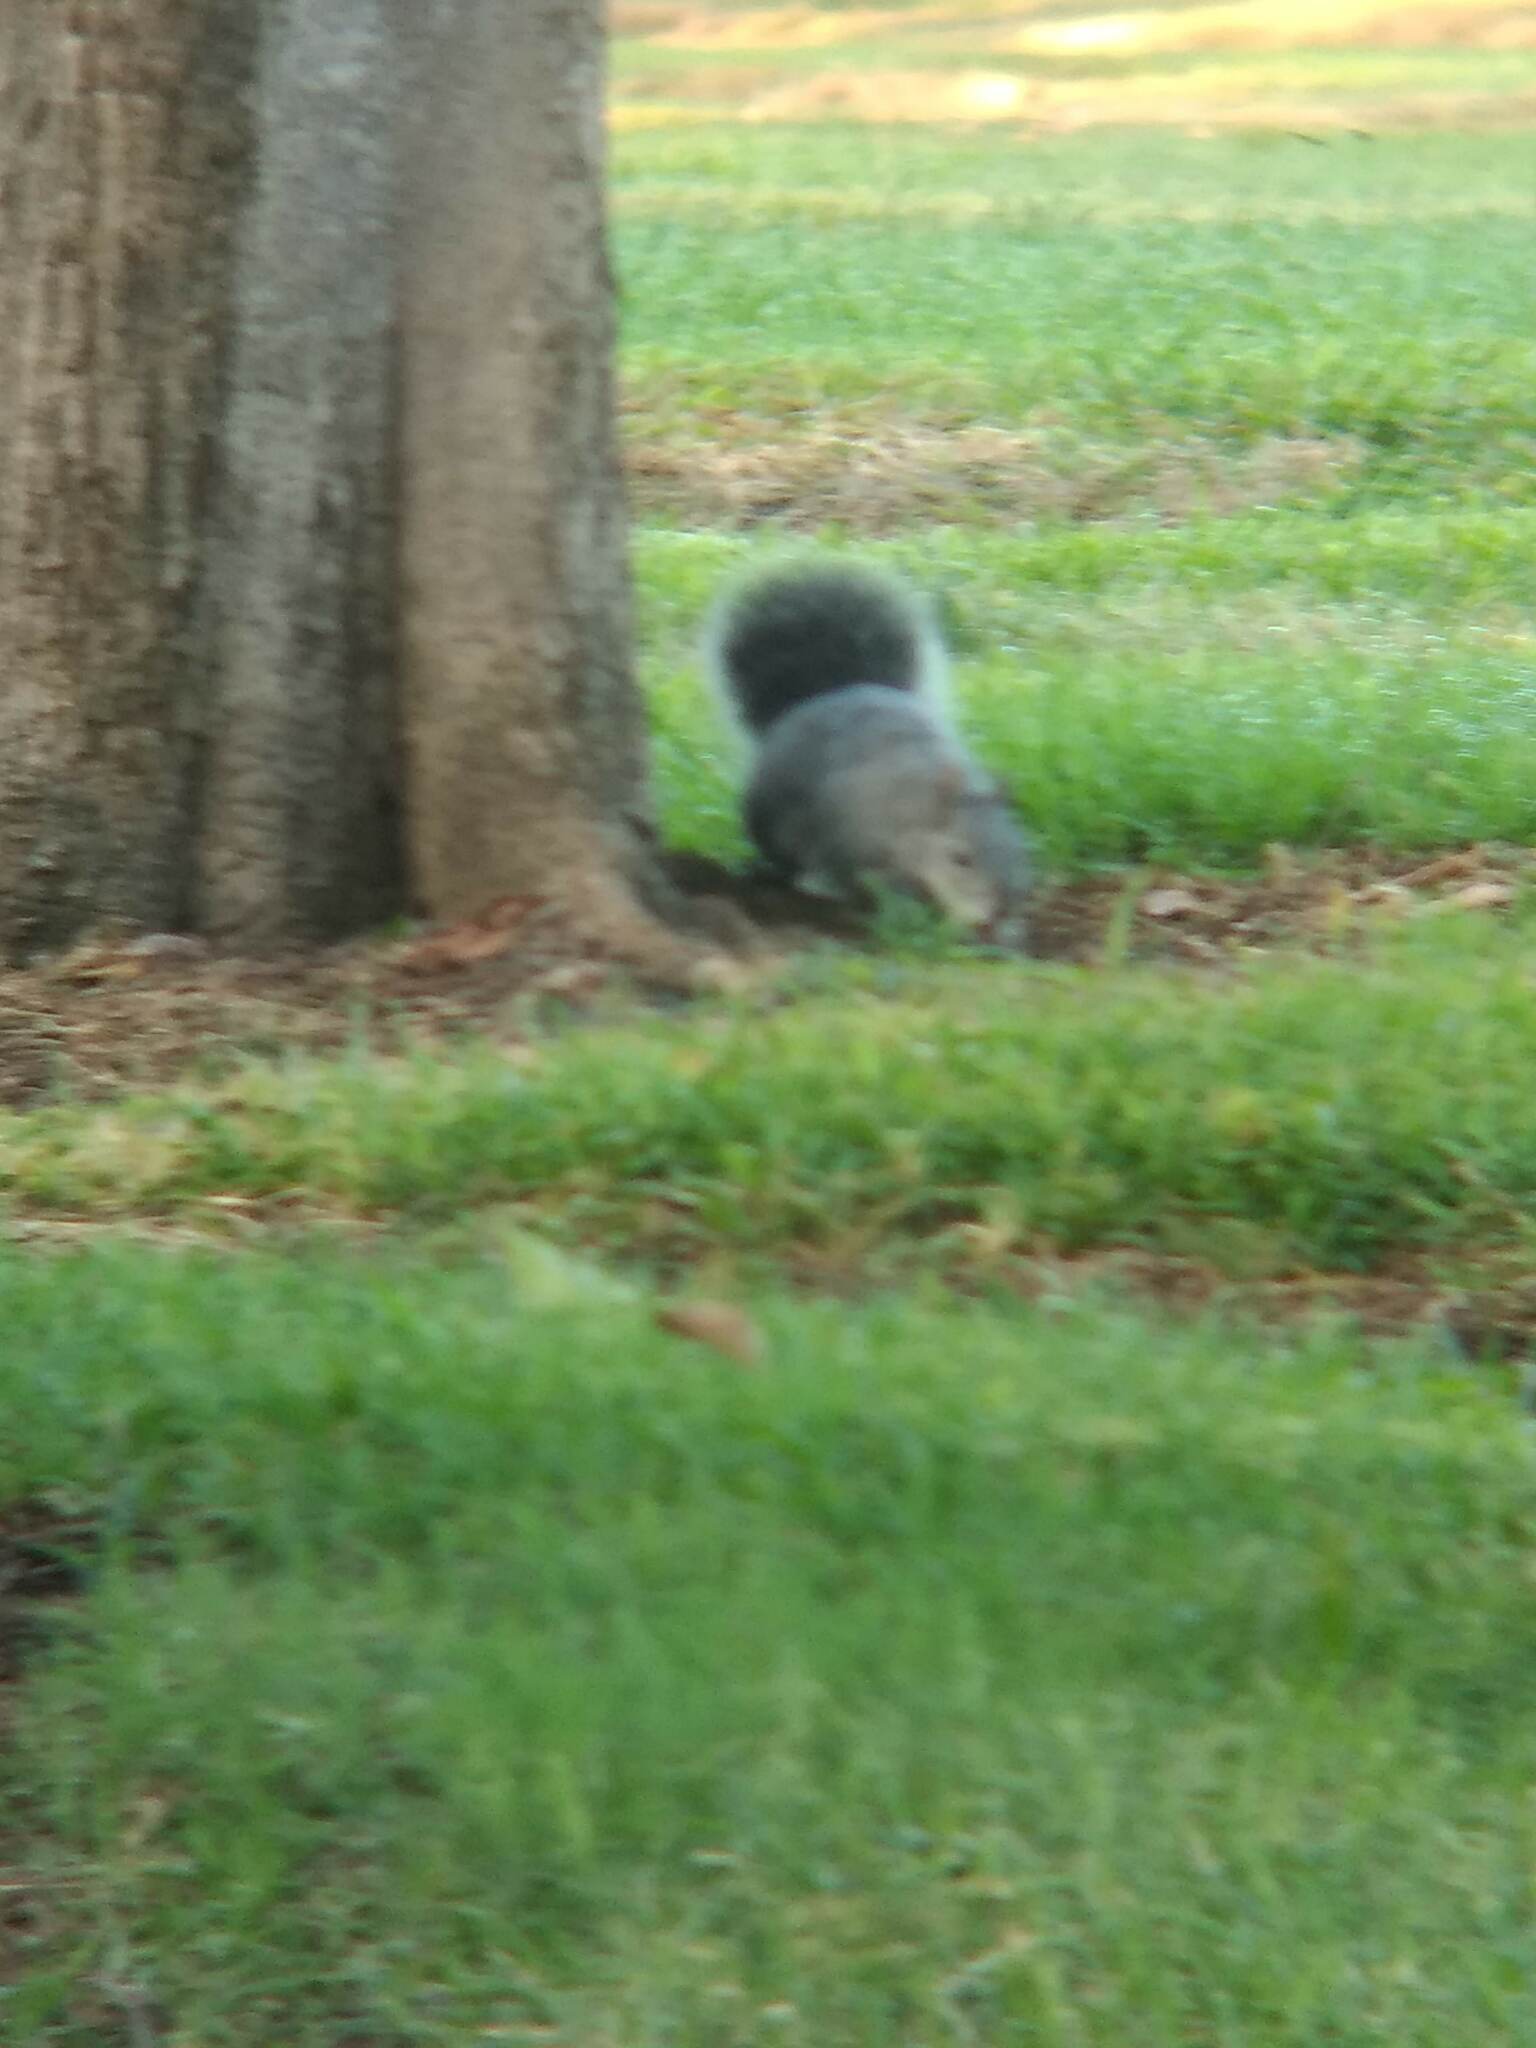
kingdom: Animalia
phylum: Chordata
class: Mammalia
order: Rodentia
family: Sciuridae
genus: Sciurus
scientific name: Sciurus griseus
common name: Western gray squirrel
